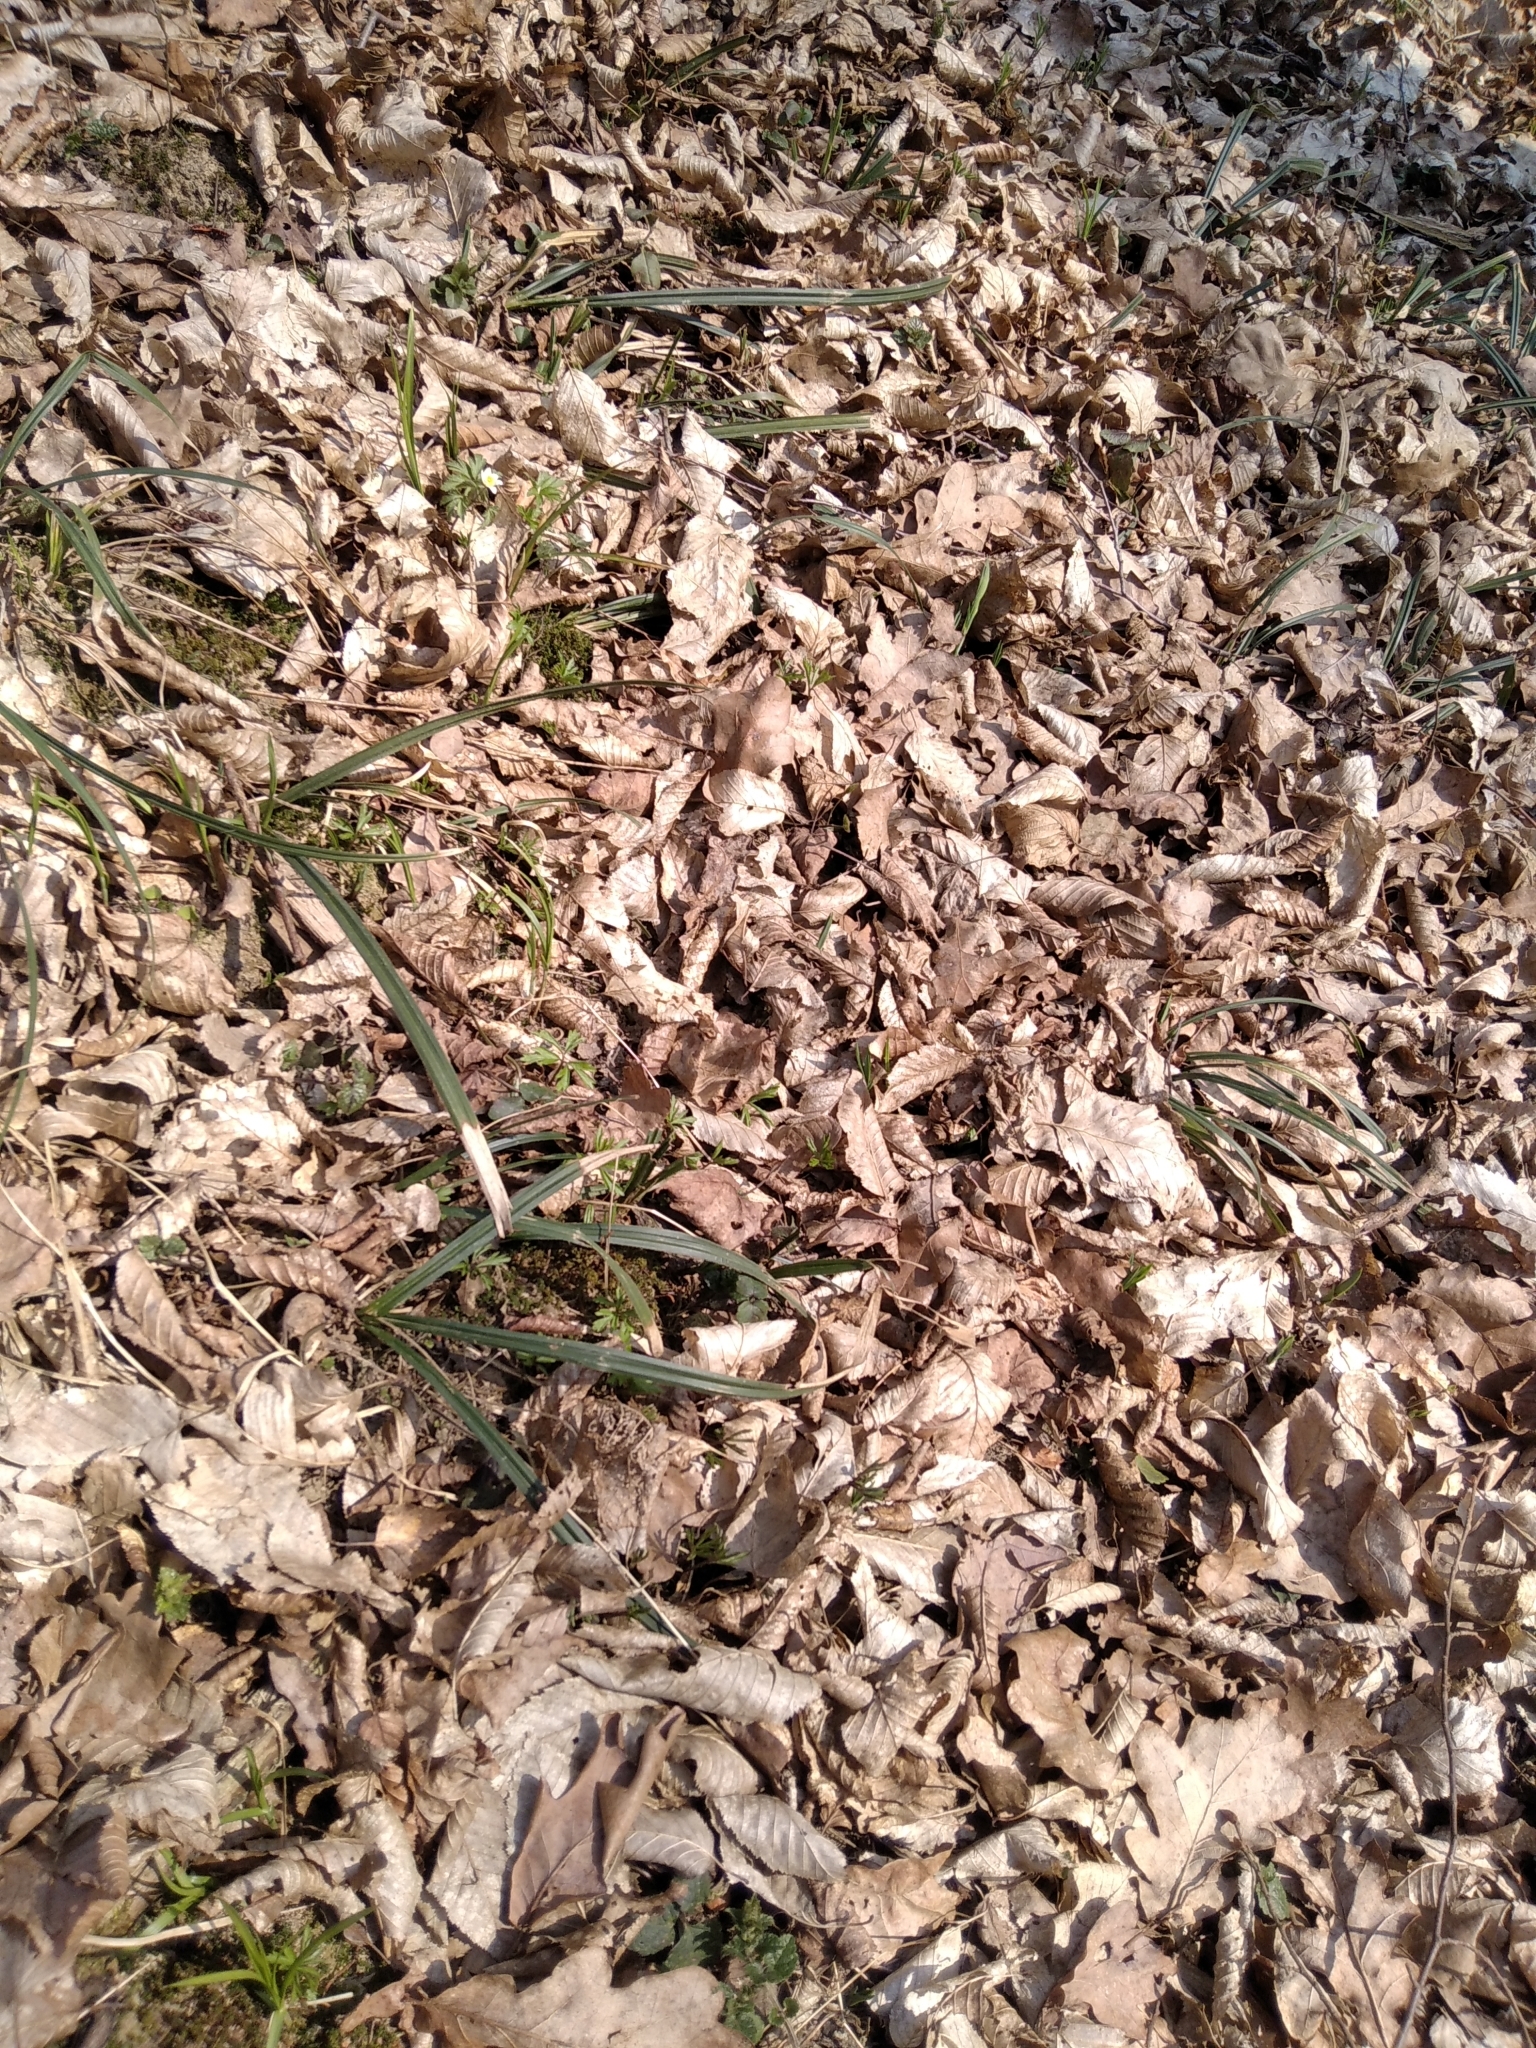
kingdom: Plantae
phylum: Tracheophyta
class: Liliopsida
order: Poales
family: Cyperaceae
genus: Carex
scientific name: Carex pilosa
